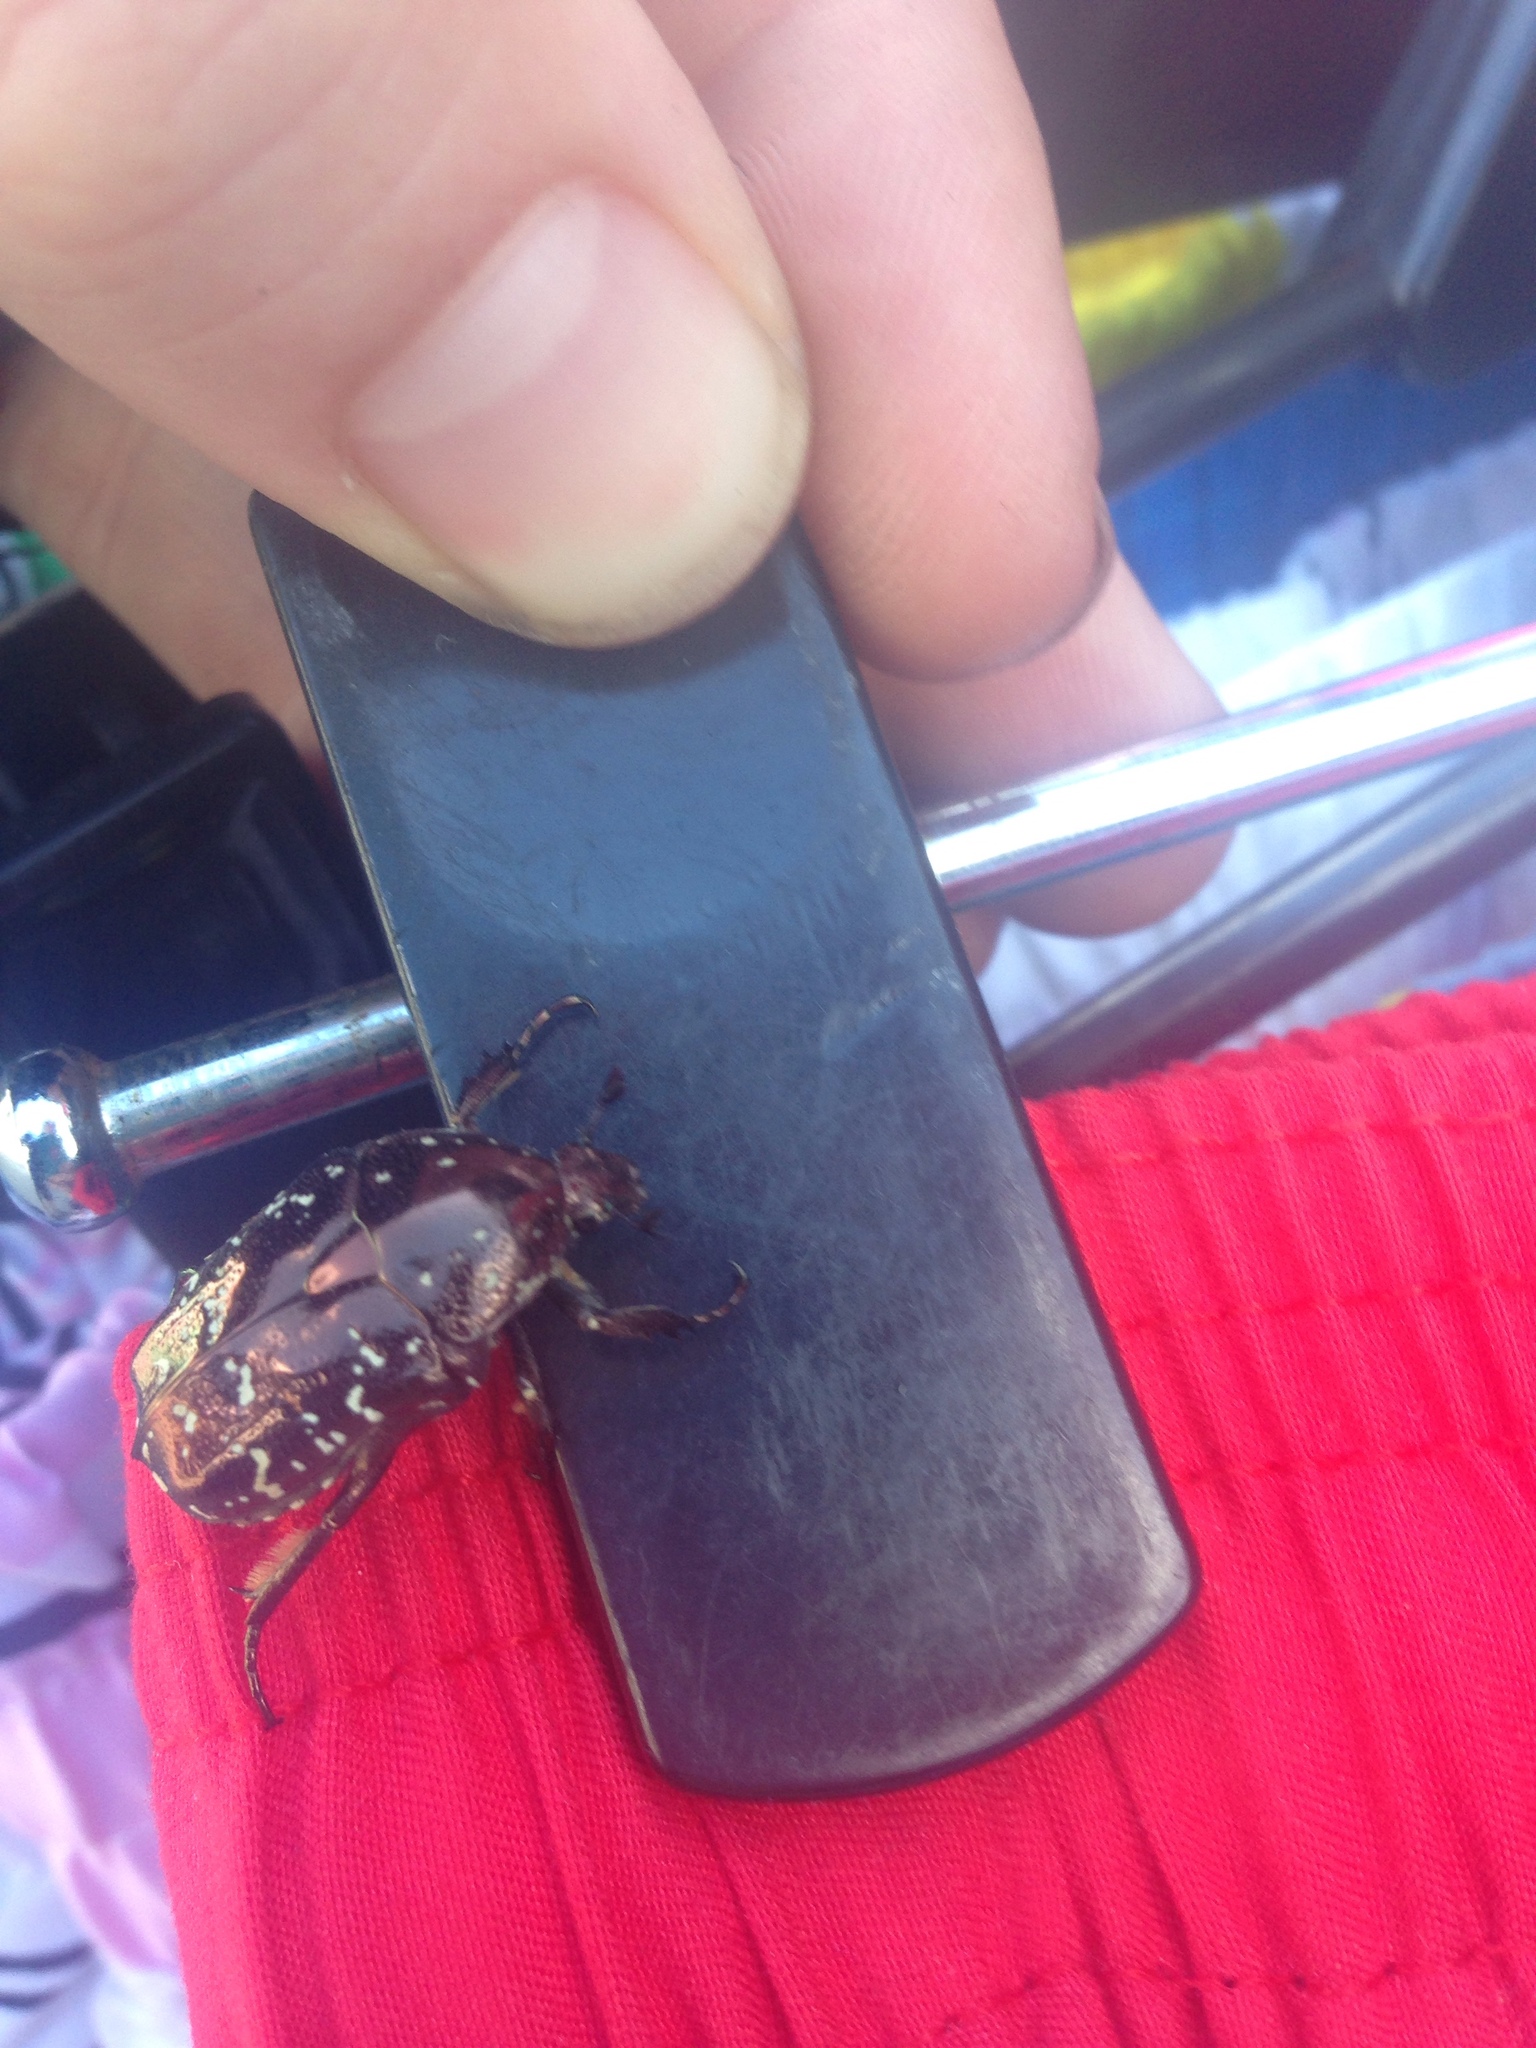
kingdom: Animalia
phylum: Arthropoda
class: Insecta
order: Coleoptera
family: Scarabaeidae
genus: Protaetia
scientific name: Protaetia orientalis
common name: Oriental flower beetle
